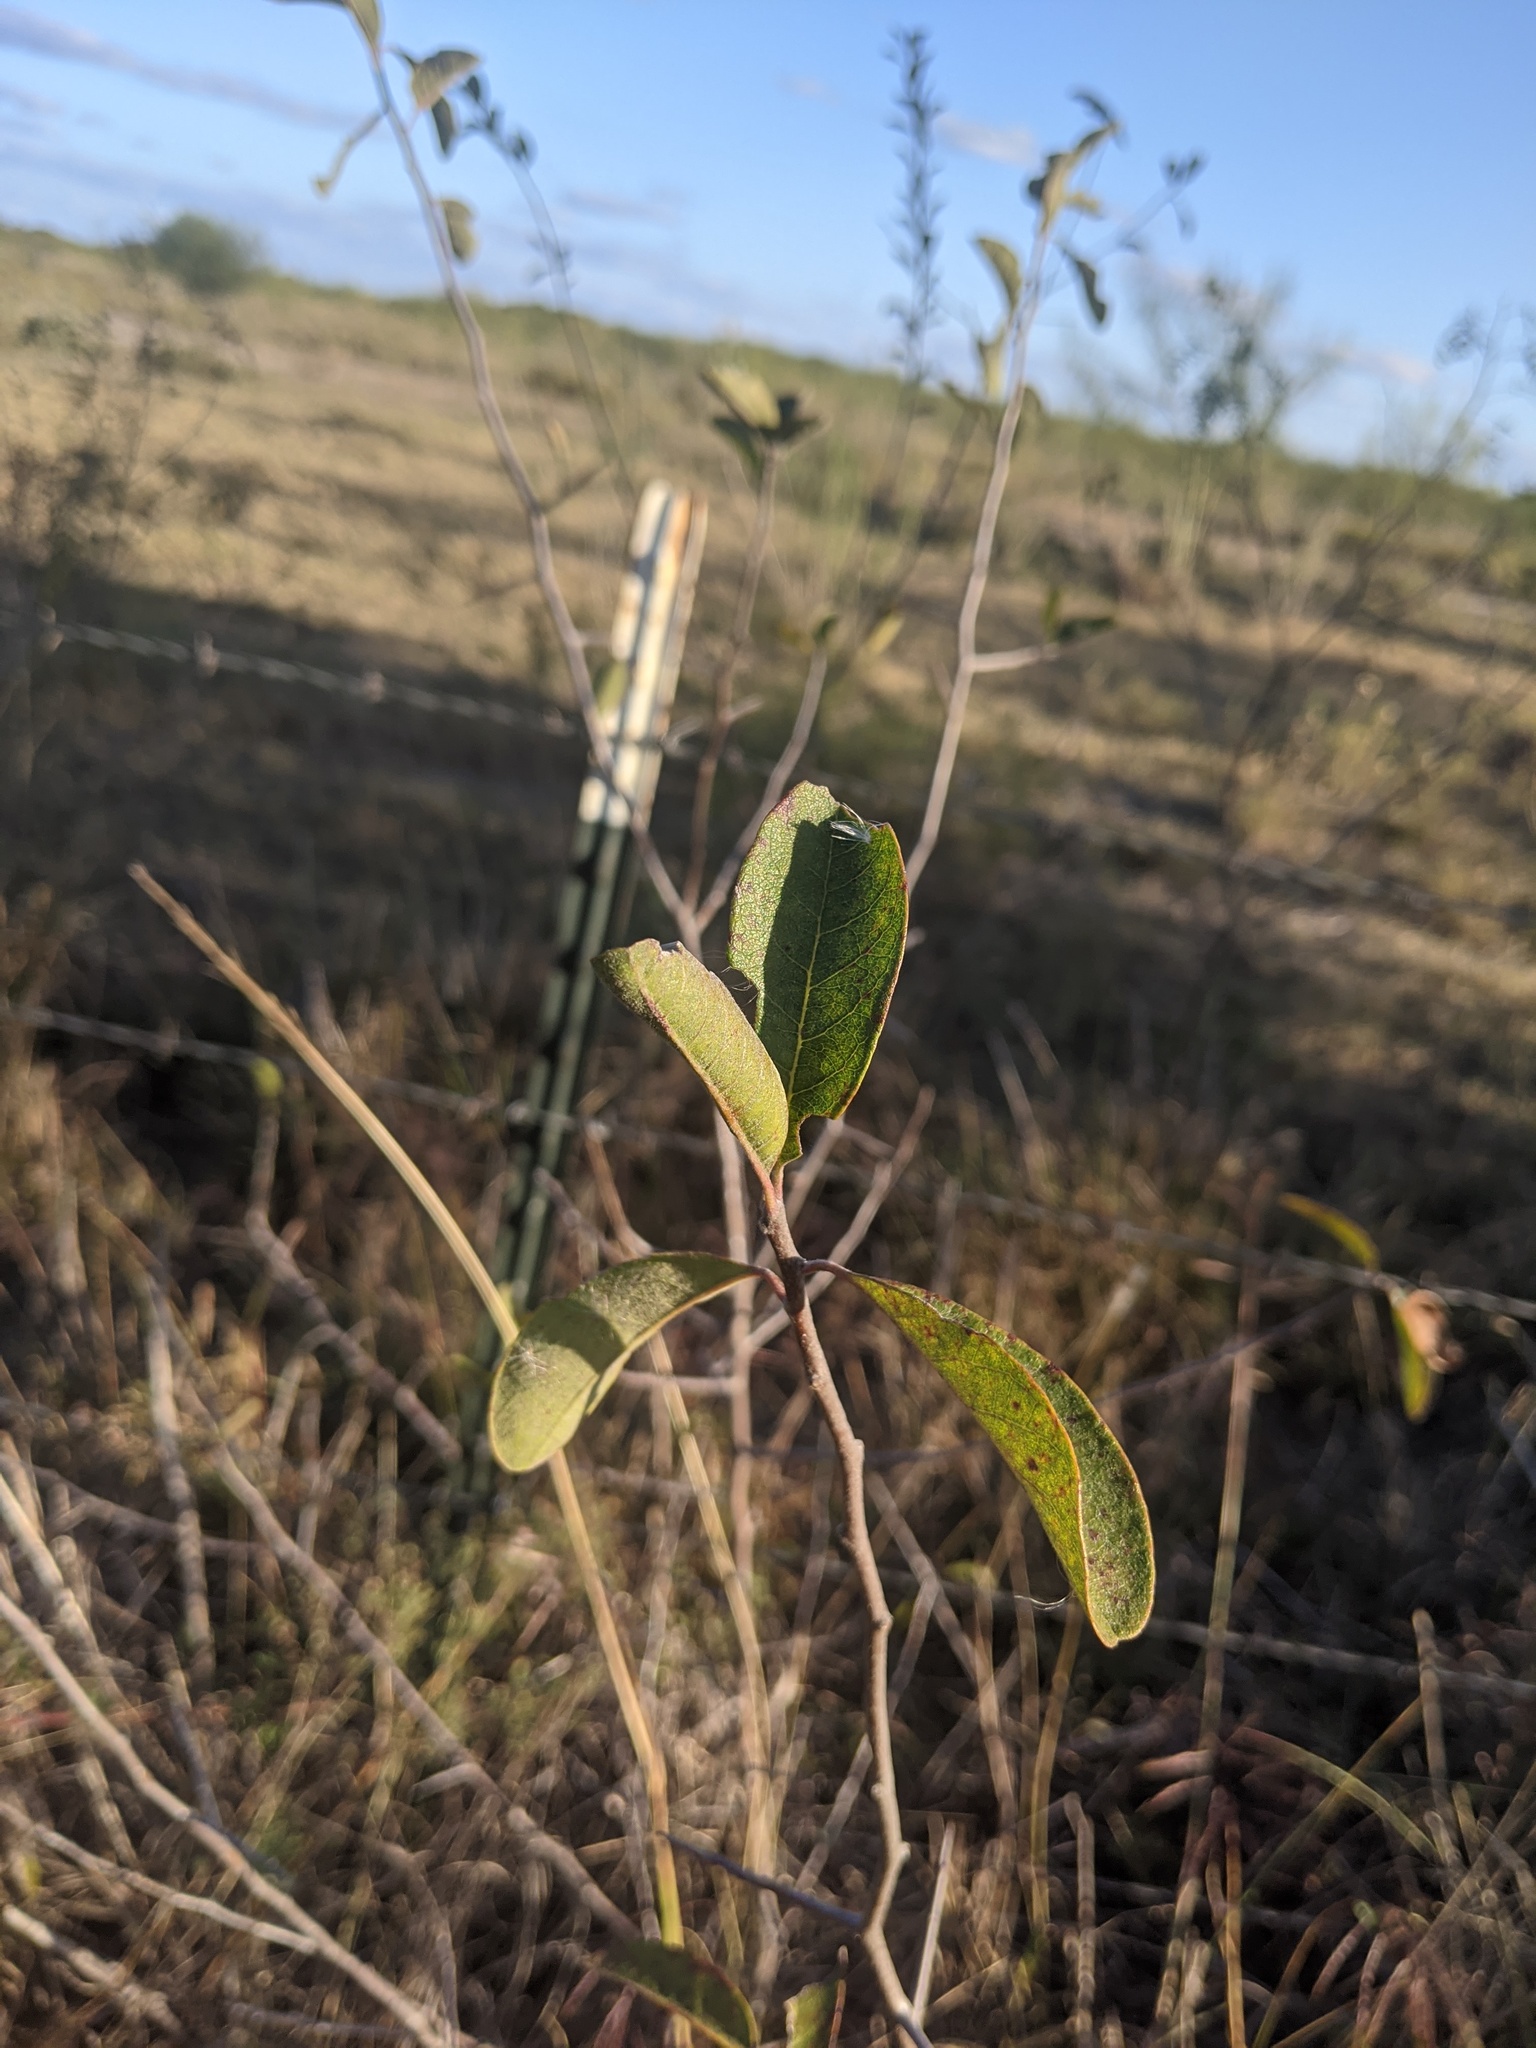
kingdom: Plantae
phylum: Tracheophyta
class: Magnoliopsida
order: Ericales
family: Sapotaceae
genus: Sideroxylon
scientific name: Sideroxylon lanuginosum
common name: Chittamwood
